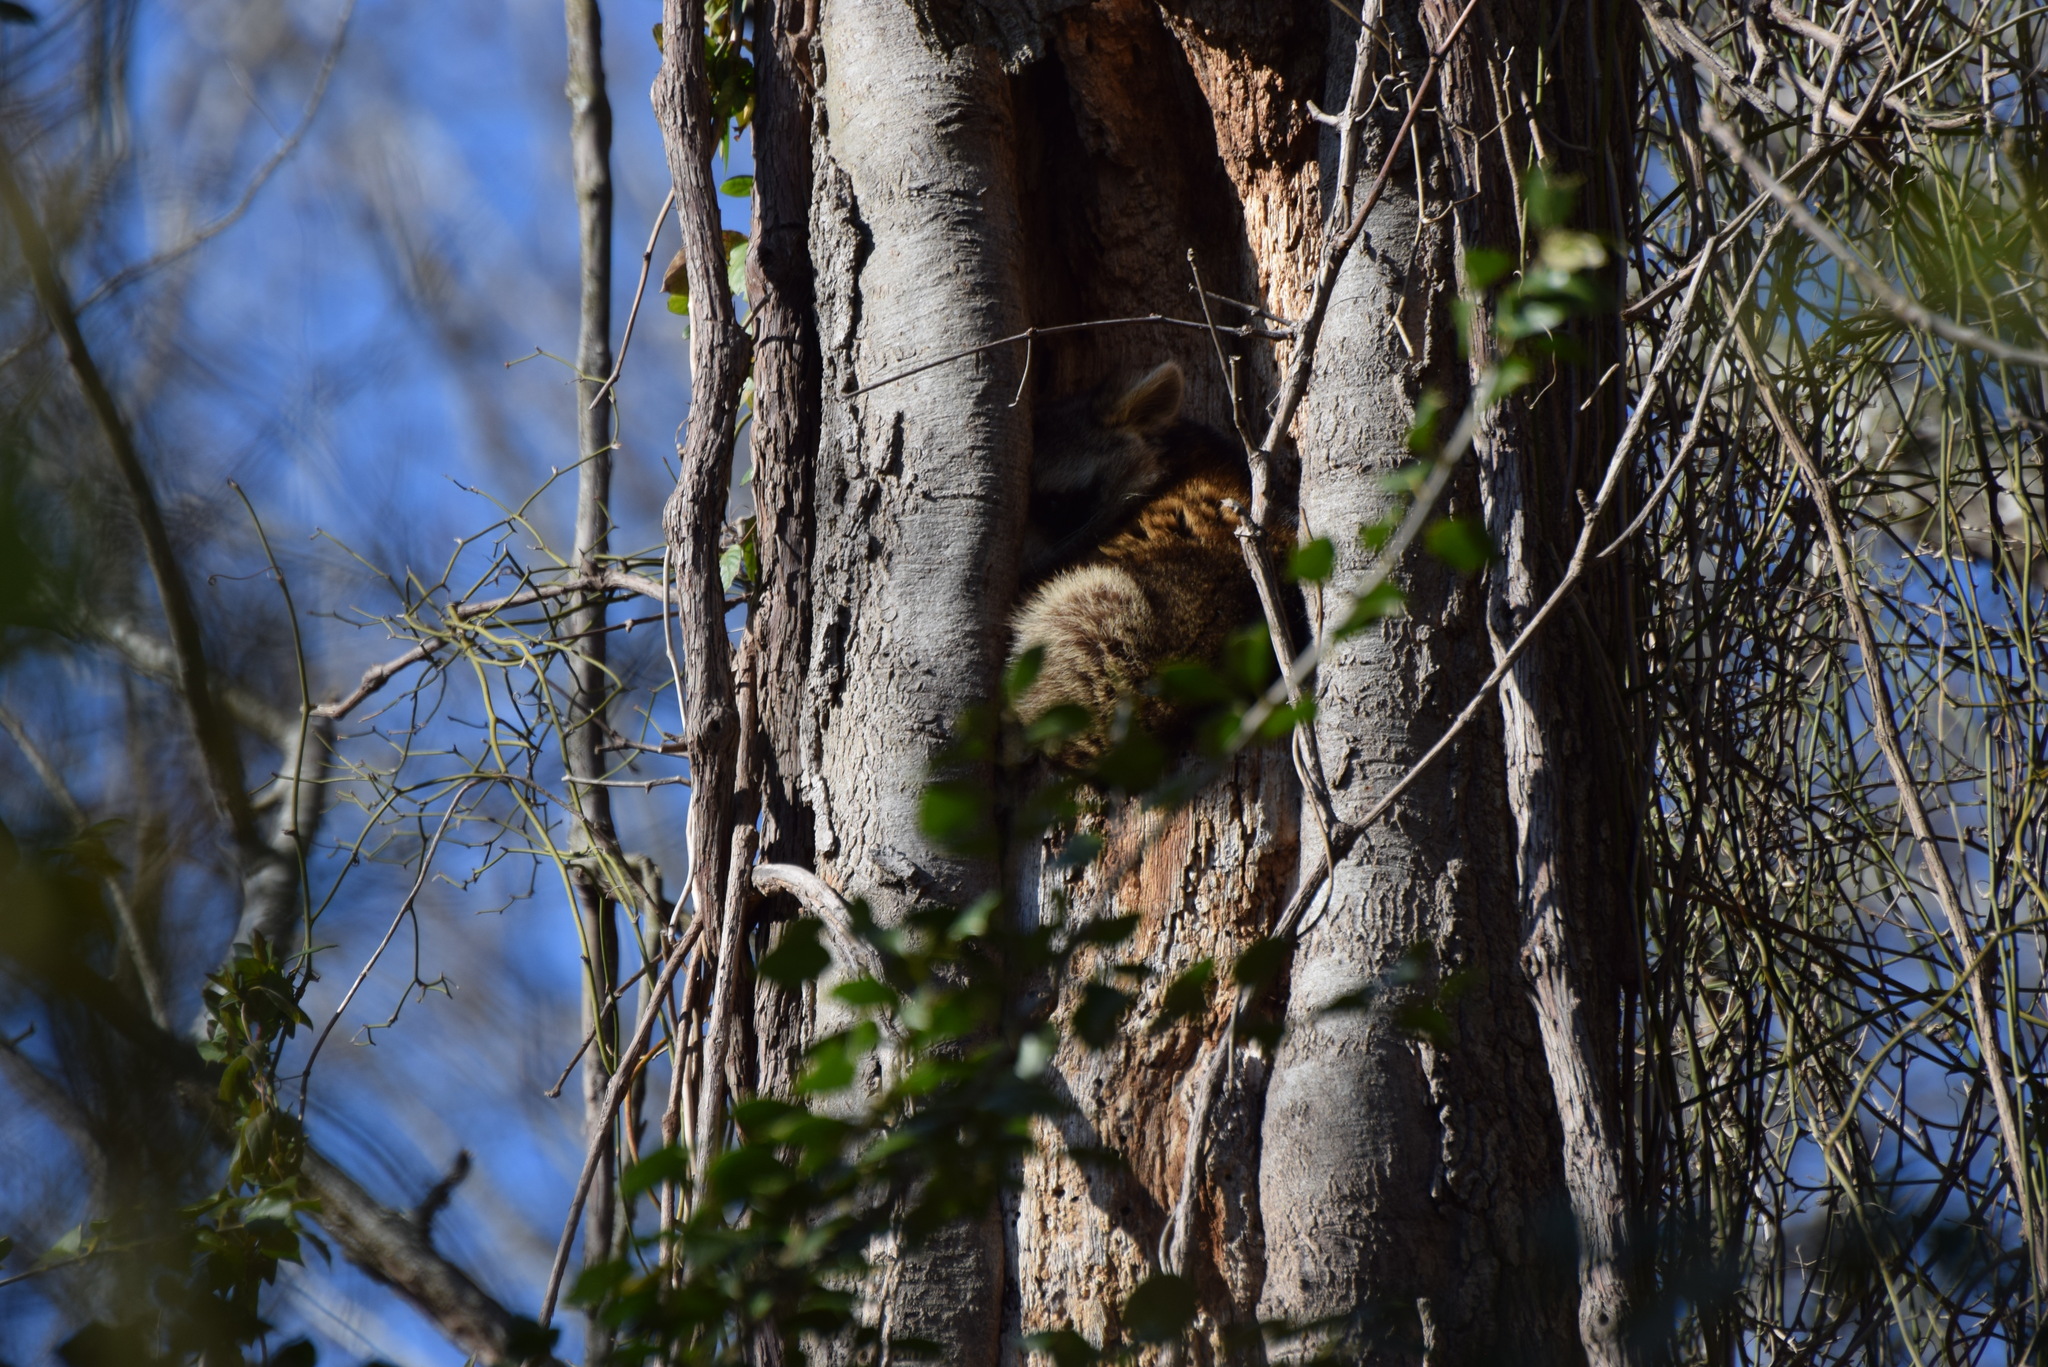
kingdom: Animalia
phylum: Chordata
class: Mammalia
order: Carnivora
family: Procyonidae
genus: Procyon
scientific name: Procyon lotor
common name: Raccoon
